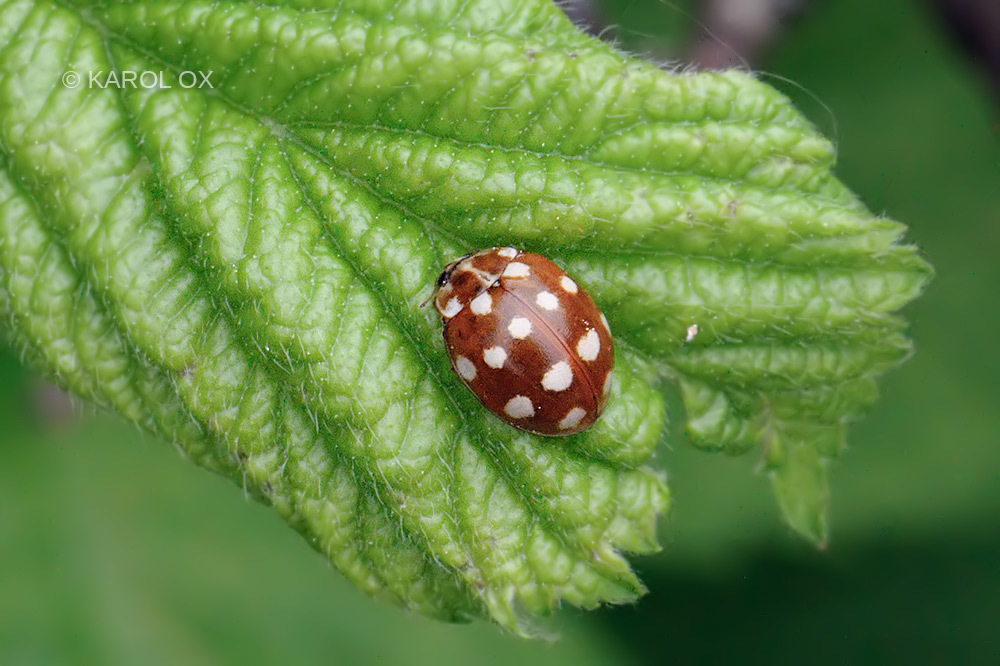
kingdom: Animalia
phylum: Arthropoda
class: Insecta
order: Coleoptera
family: Coccinellidae
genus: Calvia
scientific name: Calvia quatuordecimguttata
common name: Cream-spot ladybird
